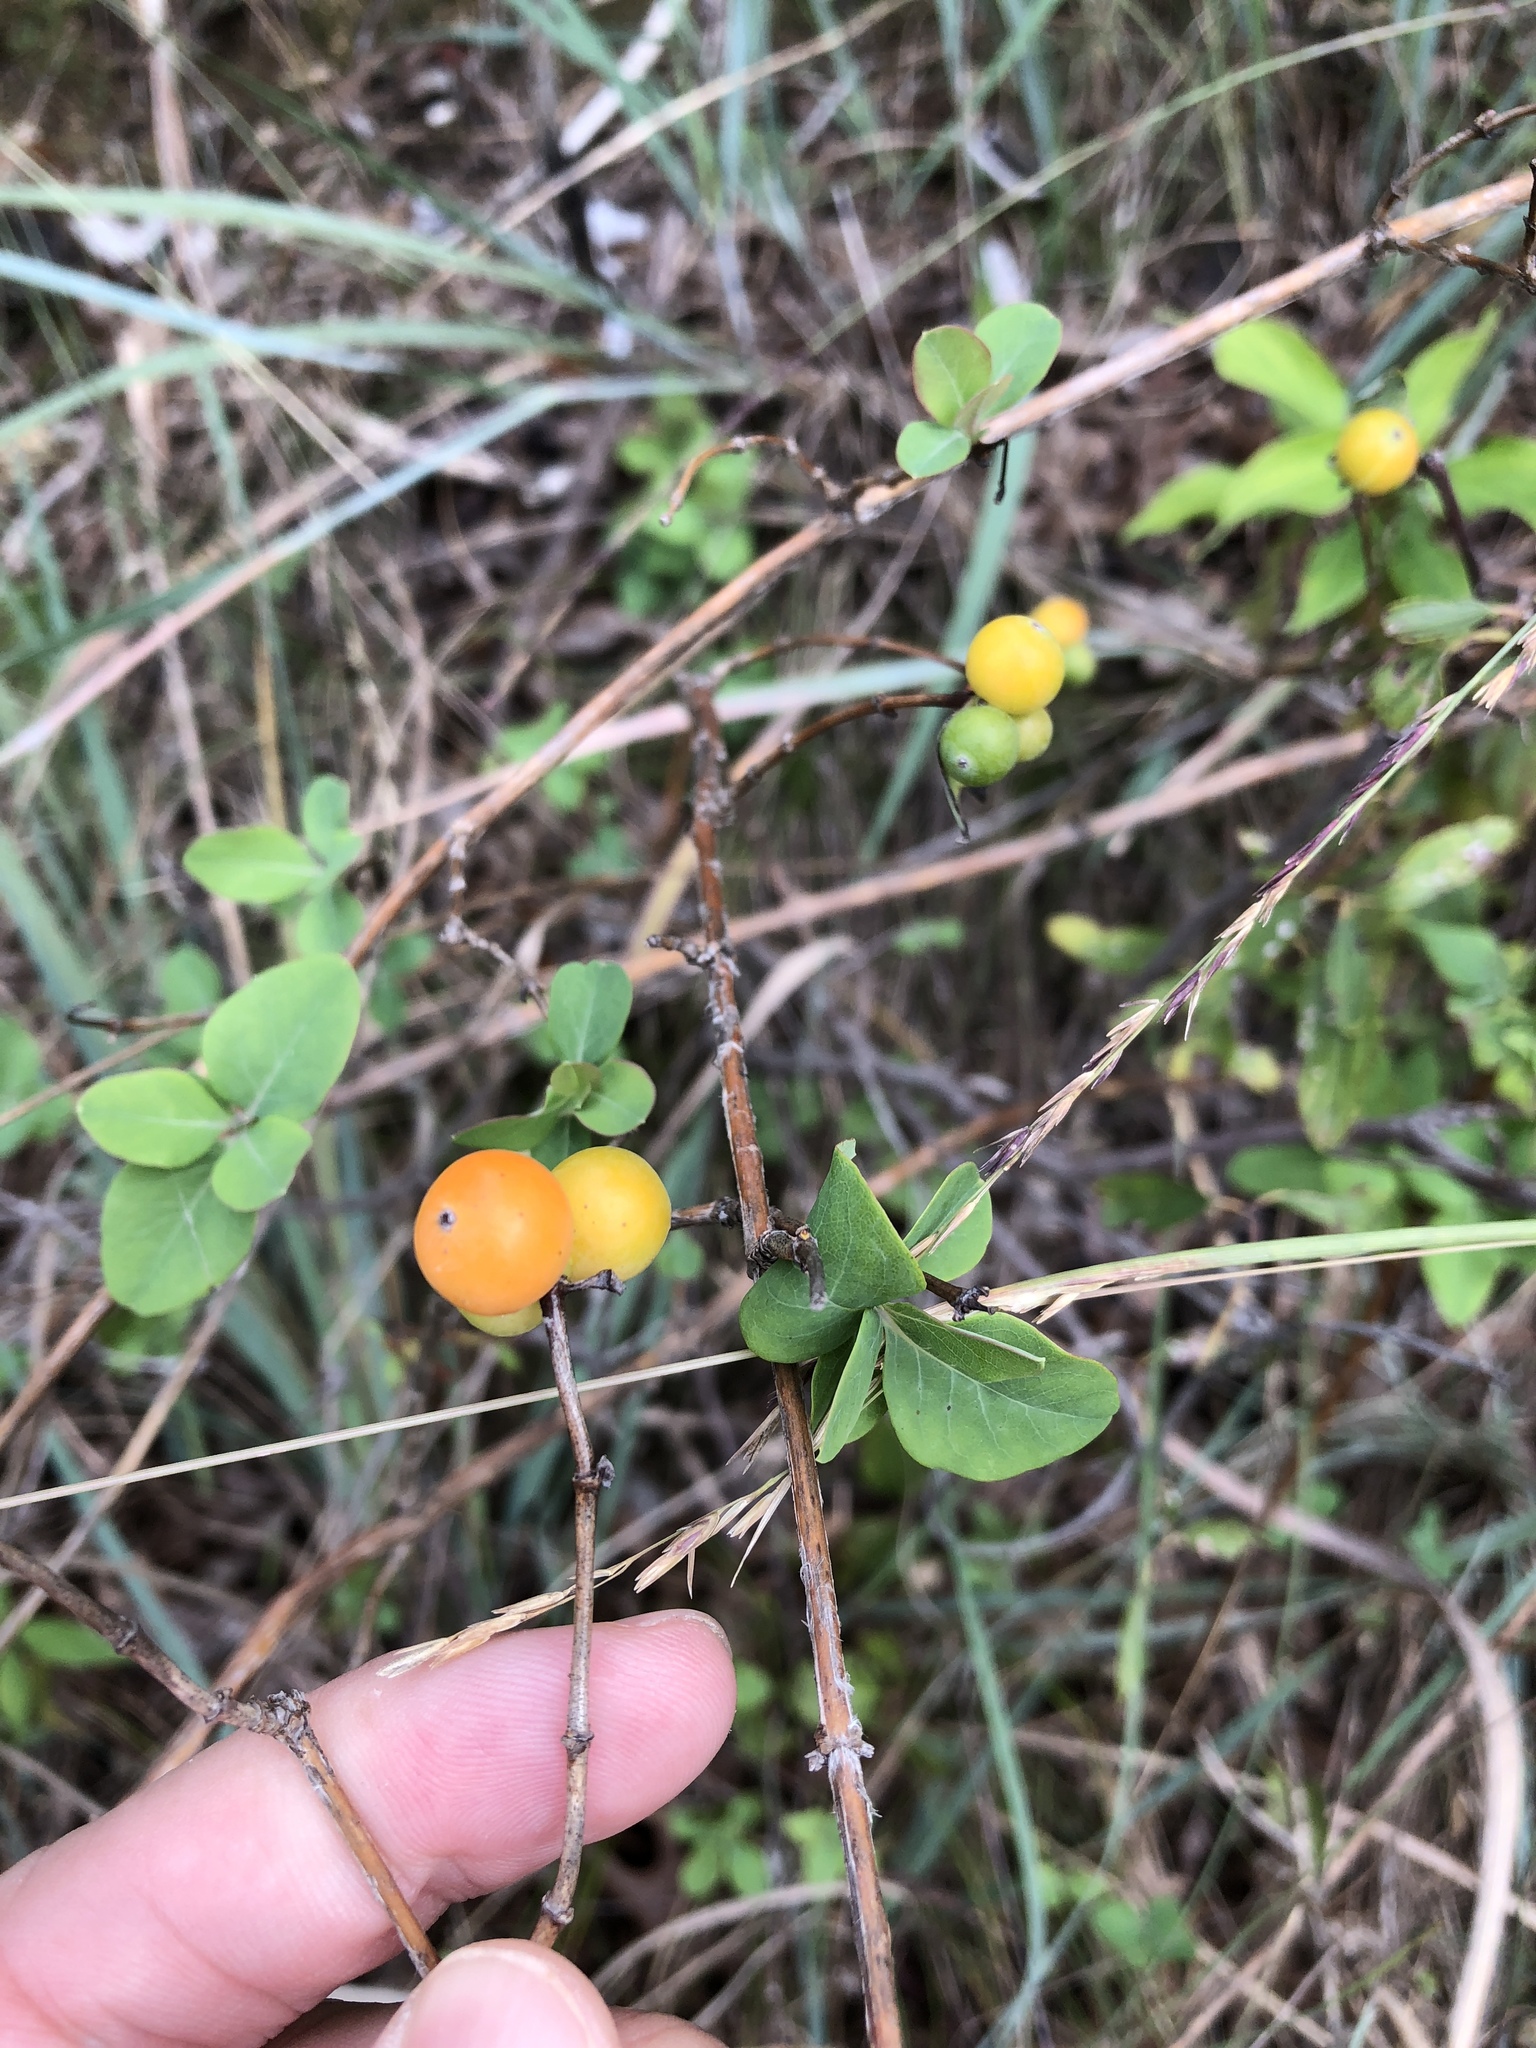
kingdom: Plantae
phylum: Tracheophyta
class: Magnoliopsida
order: Dipsacales
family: Caprifoliaceae
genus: Lonicera
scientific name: Lonicera albiflora
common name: White honeysuckle
